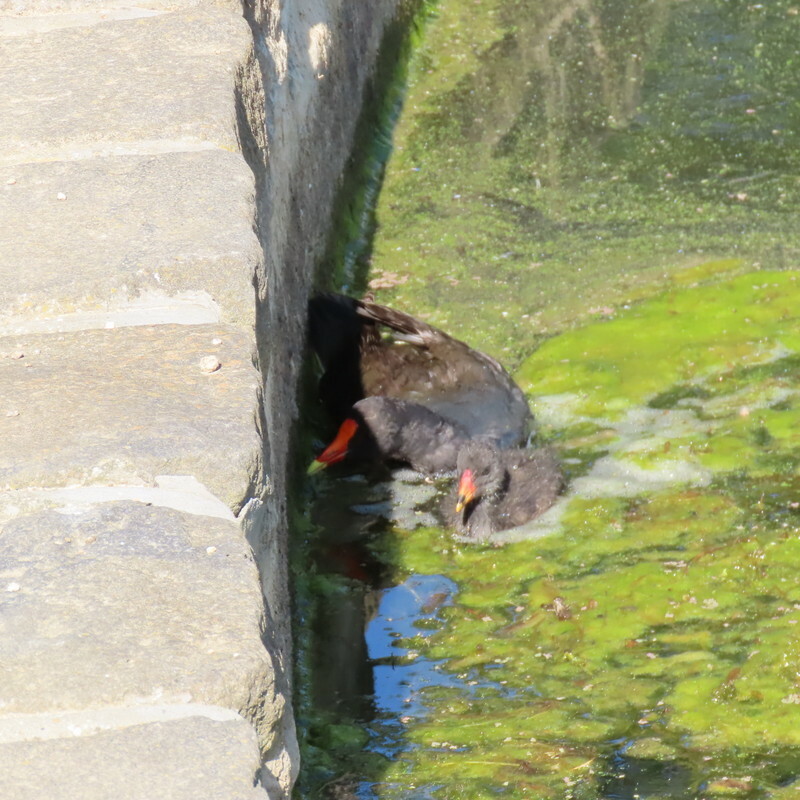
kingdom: Animalia
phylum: Chordata
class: Aves
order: Gruiformes
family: Rallidae
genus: Gallinula
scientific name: Gallinula tenebrosa
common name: Dusky moorhen
